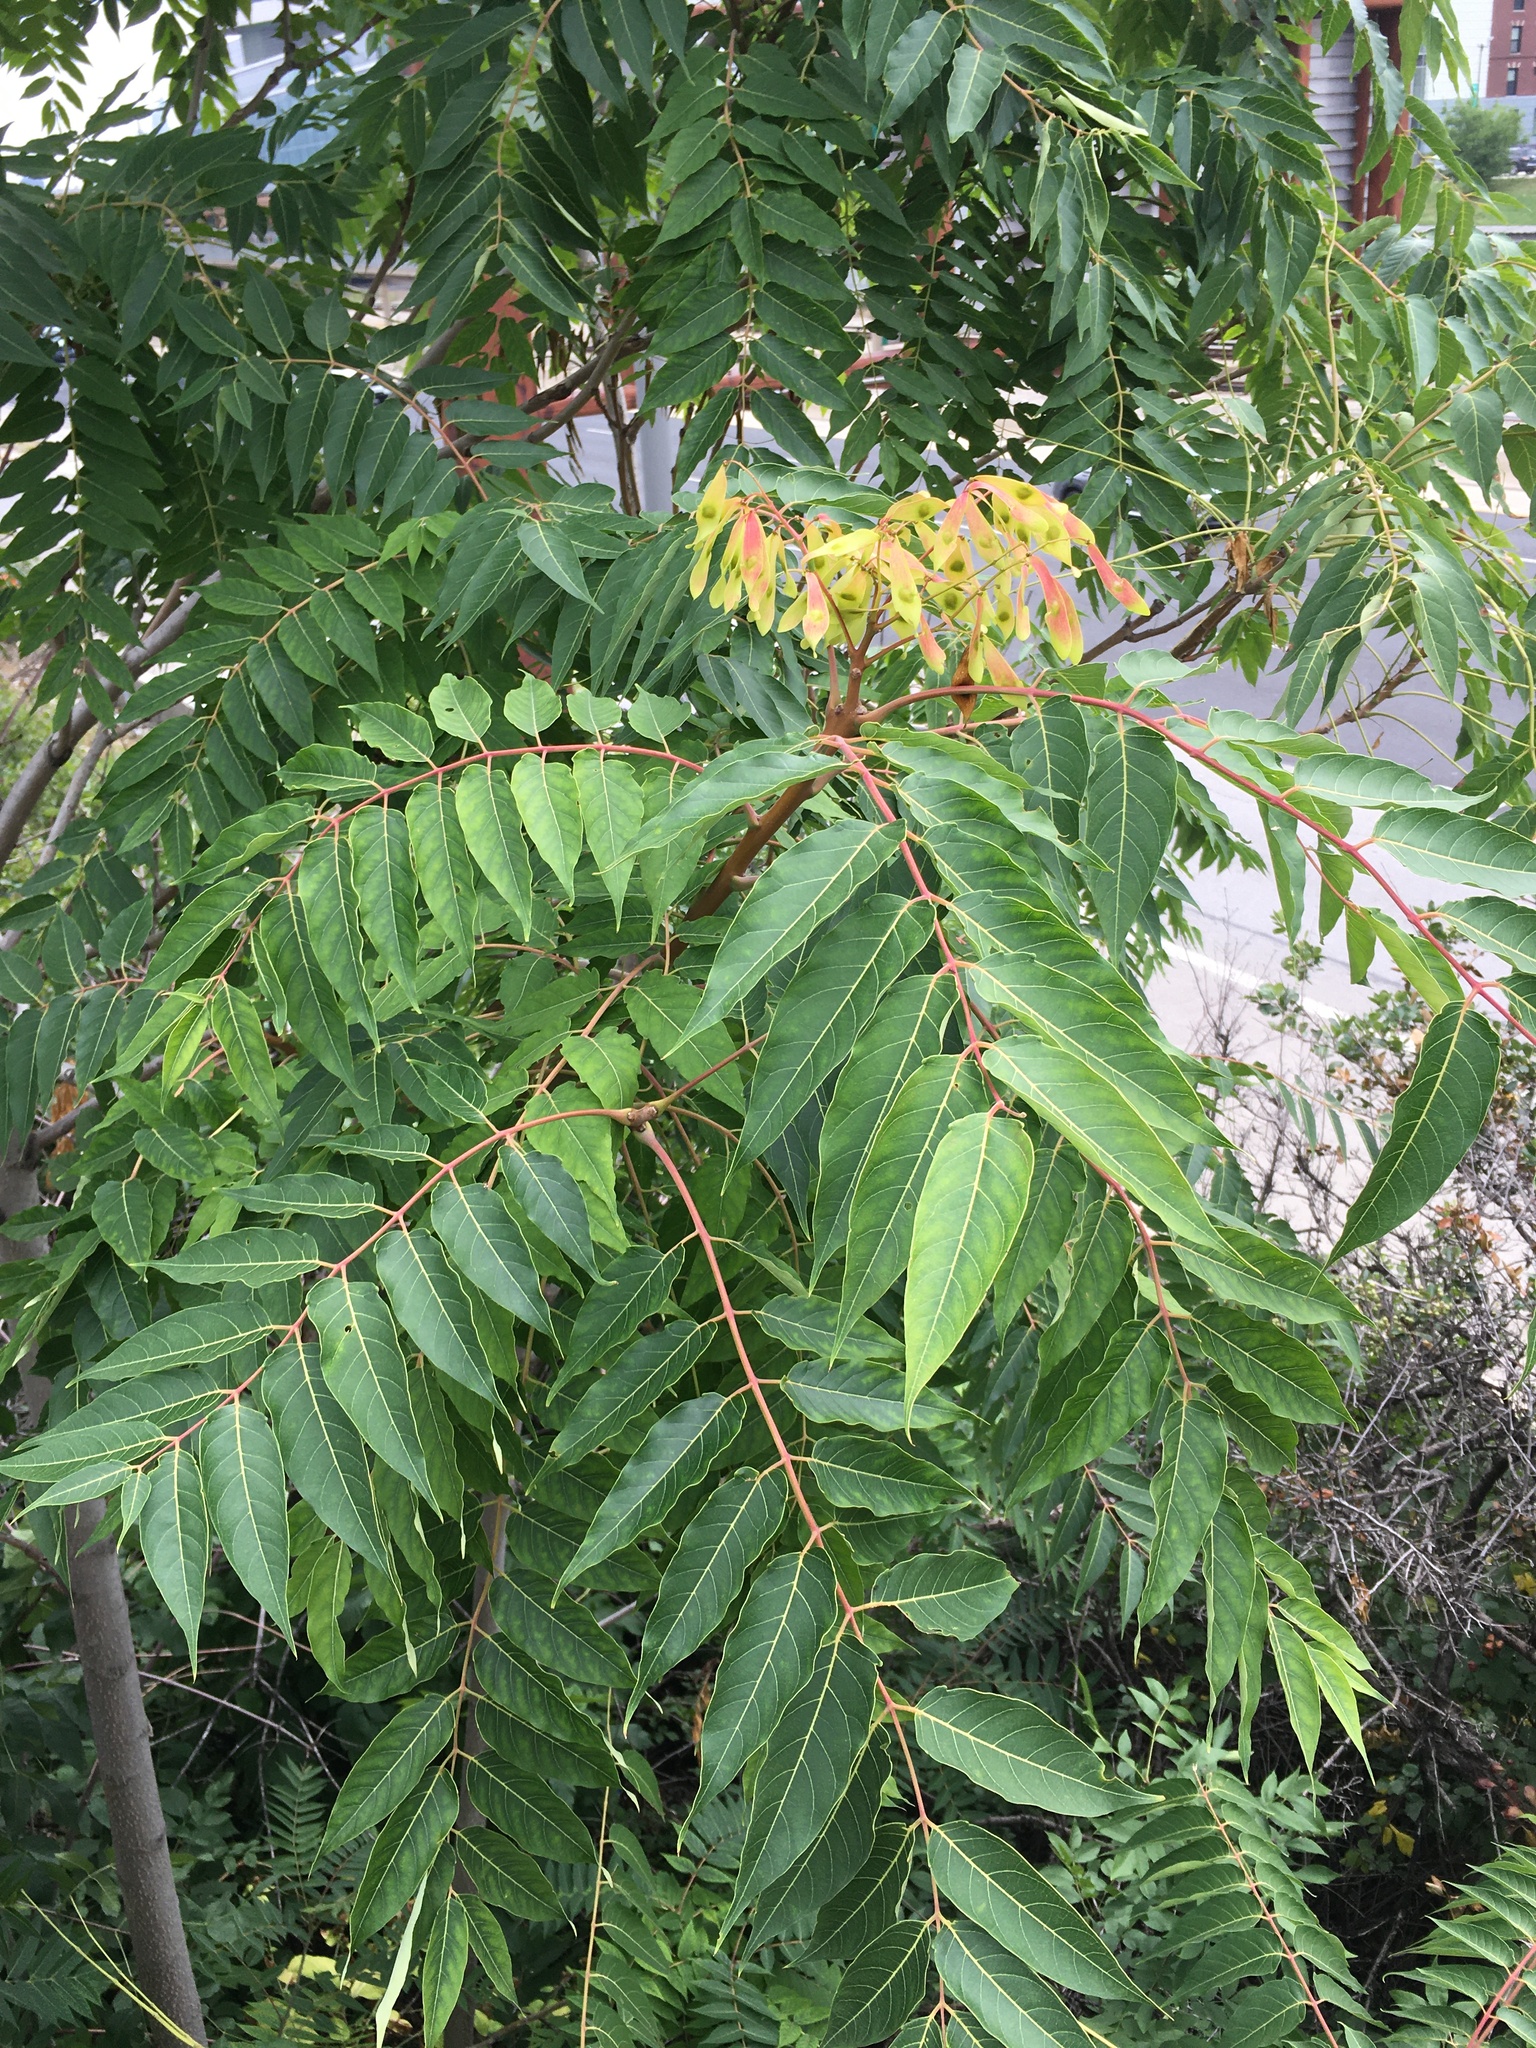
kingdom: Plantae
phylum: Tracheophyta
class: Magnoliopsida
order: Sapindales
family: Simaroubaceae
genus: Ailanthus
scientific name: Ailanthus altissima
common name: Tree-of-heaven
